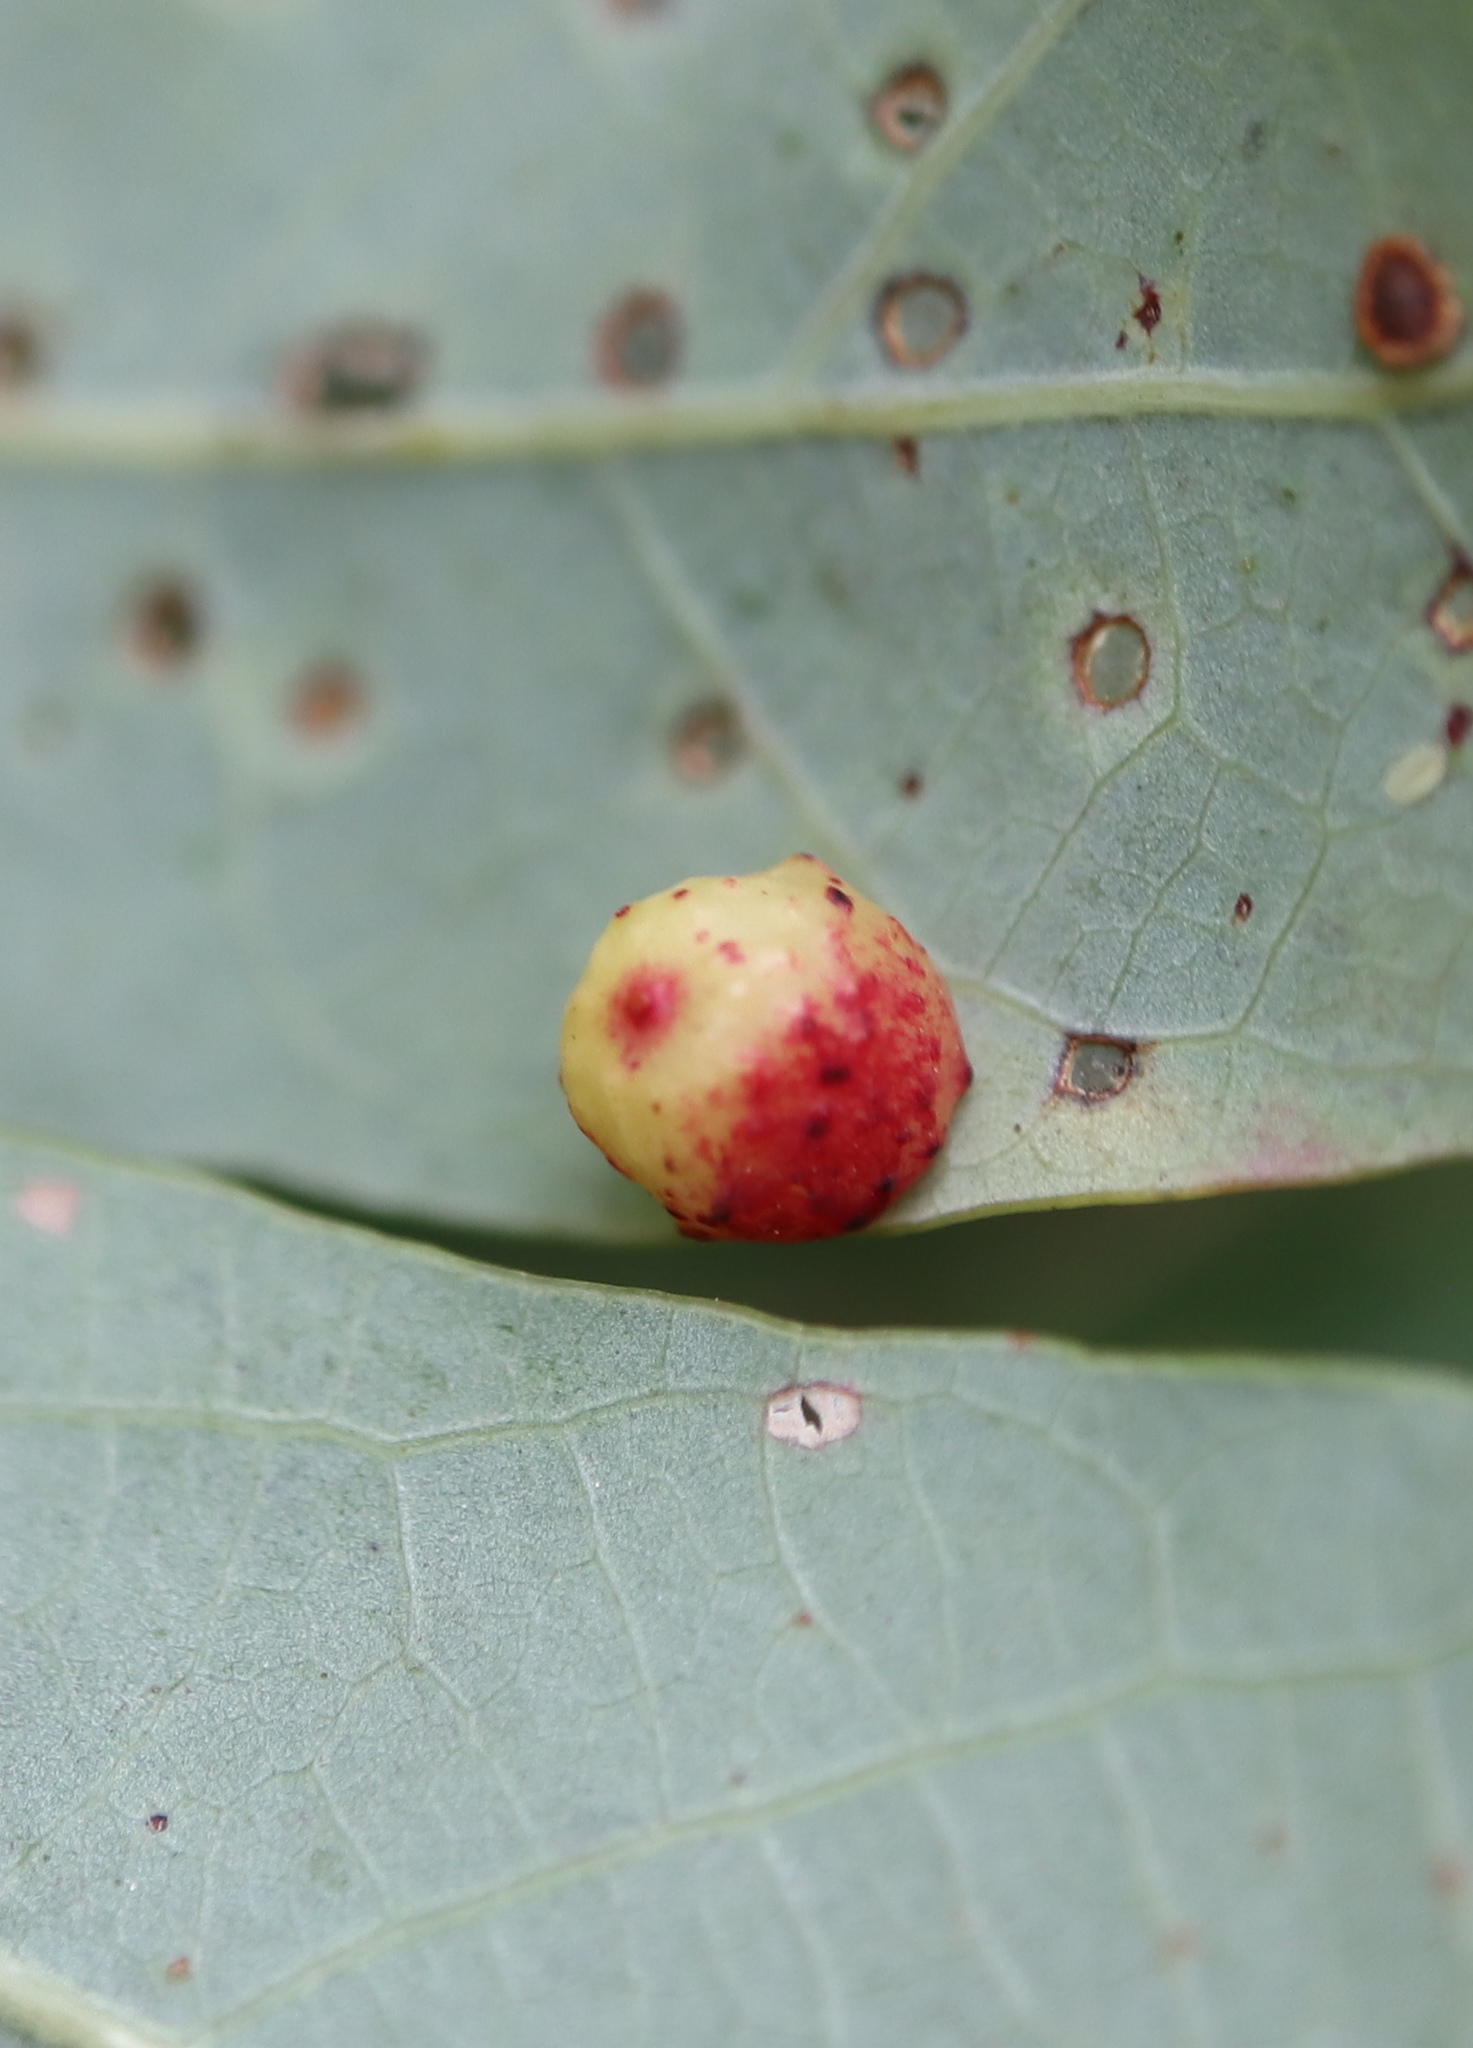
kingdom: Animalia
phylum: Arthropoda
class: Insecta
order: Hymenoptera
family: Cynipidae
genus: Andricus
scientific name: Andricus
